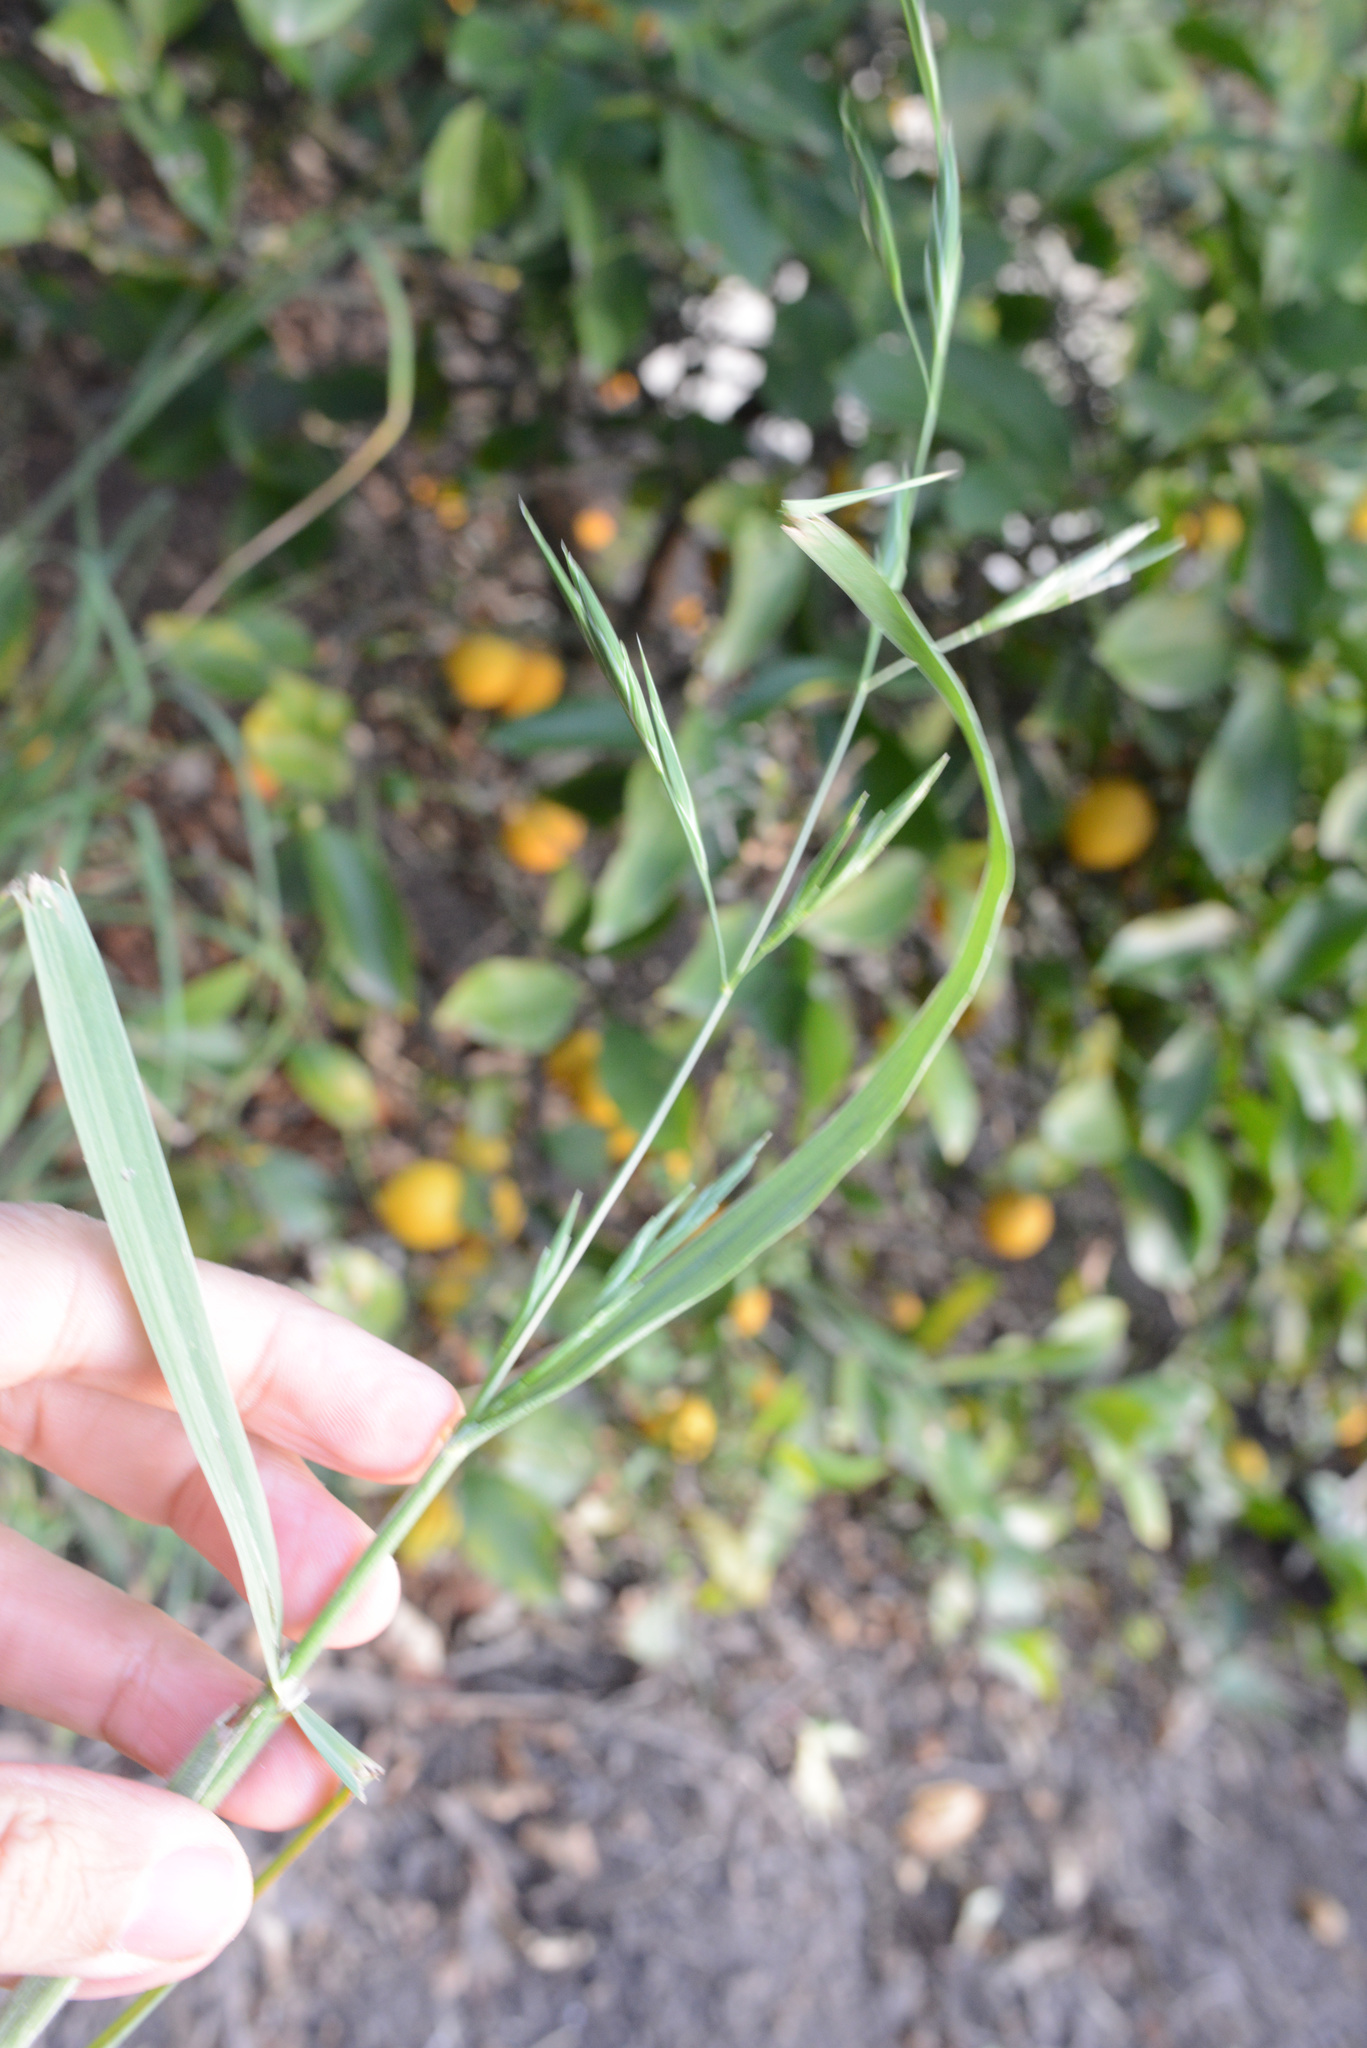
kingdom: Plantae
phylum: Tracheophyta
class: Liliopsida
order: Poales
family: Poaceae
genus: Bromus
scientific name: Bromus catharticus
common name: Rescuegrass
